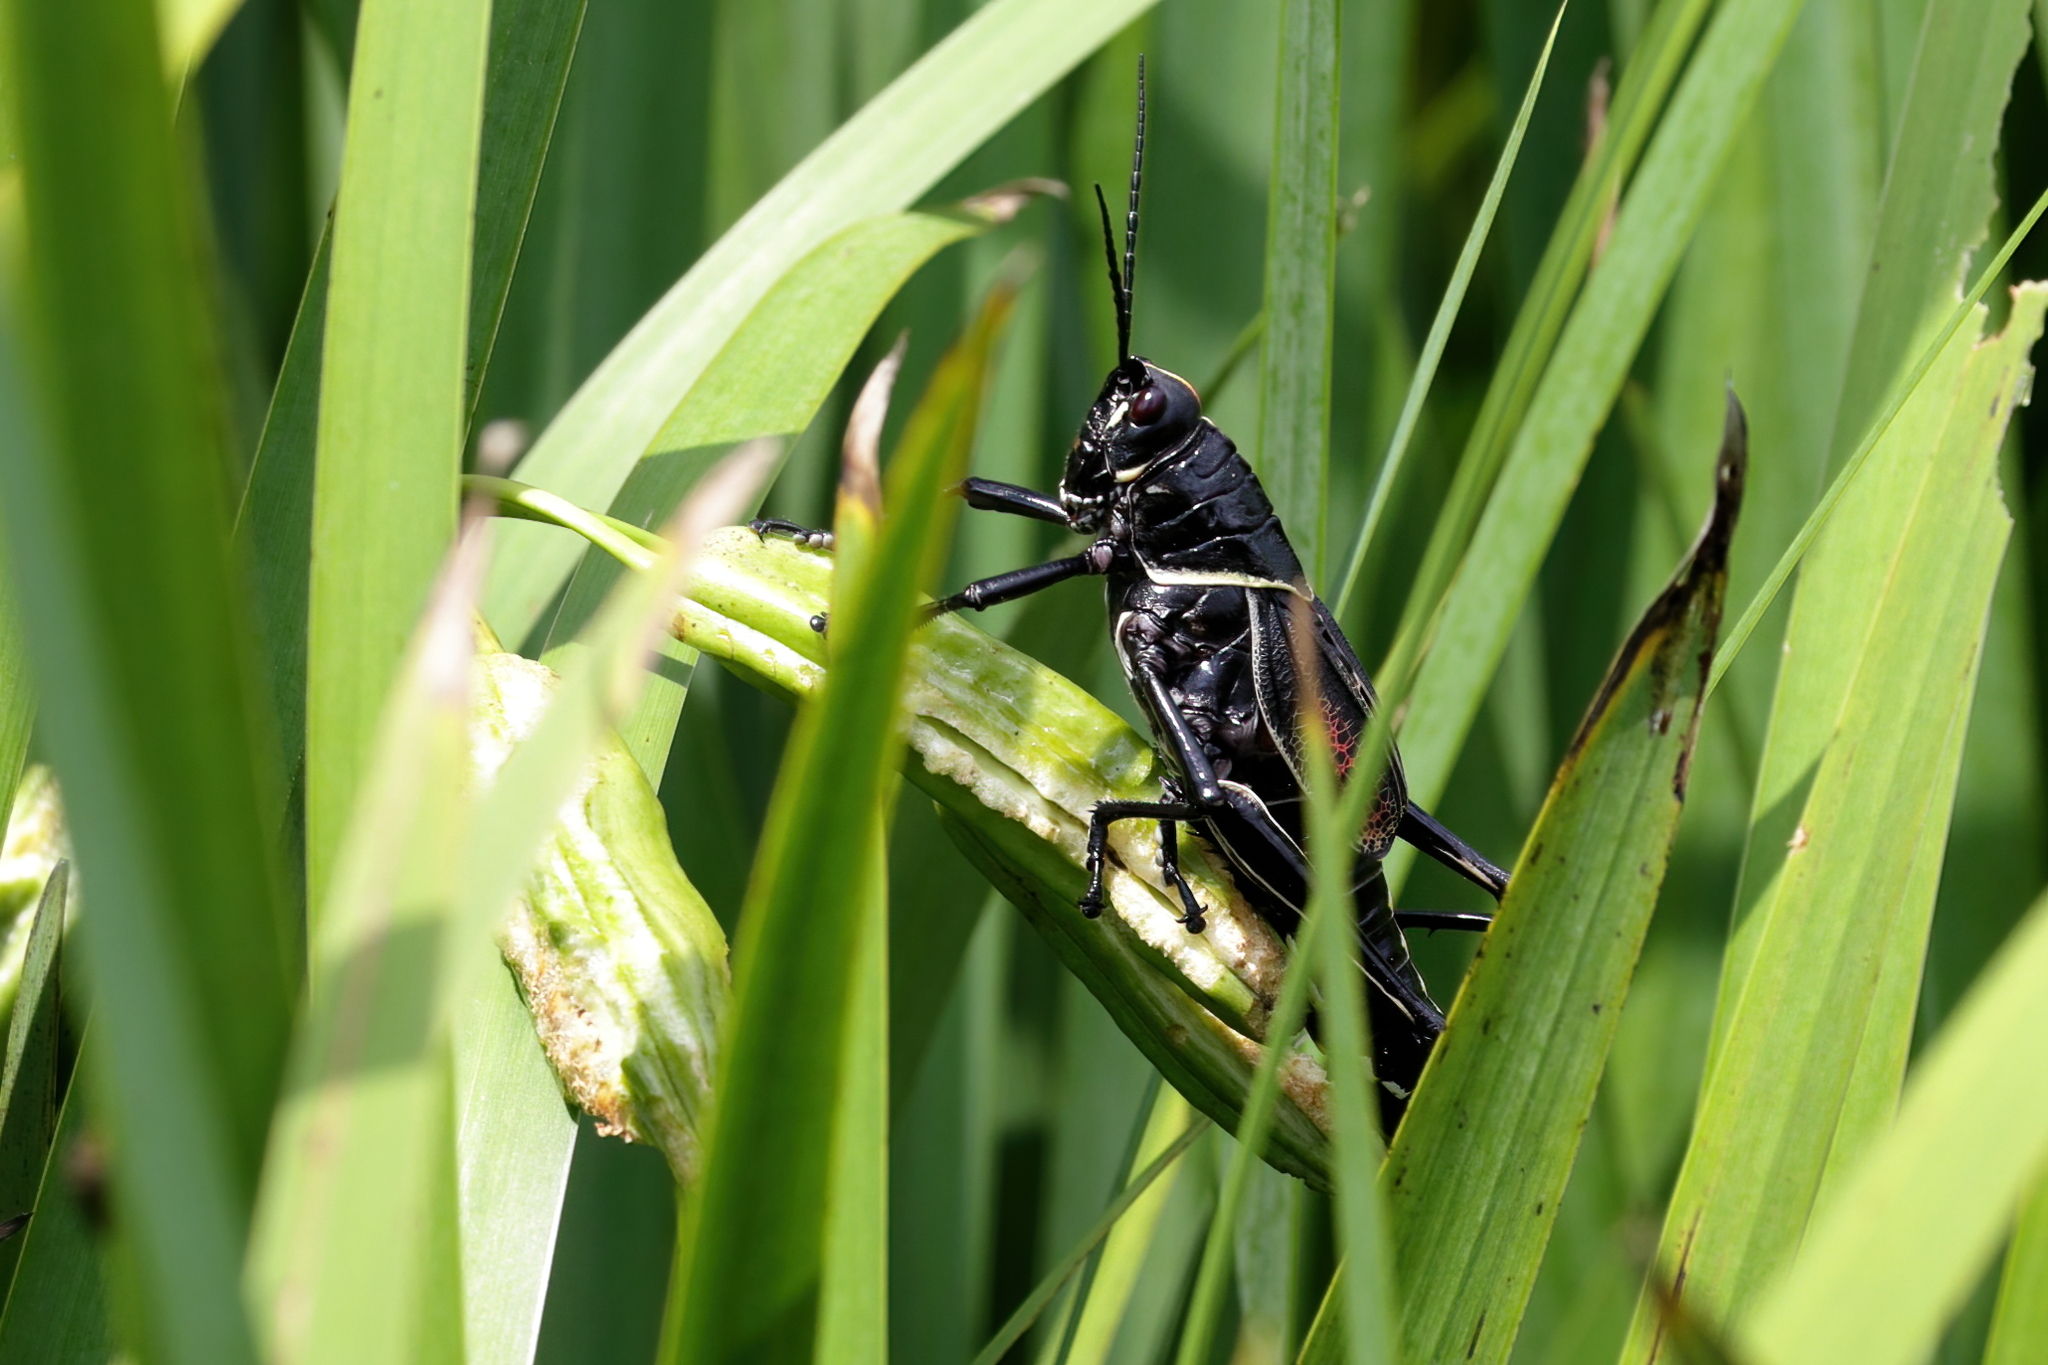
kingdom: Animalia
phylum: Arthropoda
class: Insecta
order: Orthoptera
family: Romaleidae
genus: Romalea
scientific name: Romalea microptera
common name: Eastern lubber grasshopper
